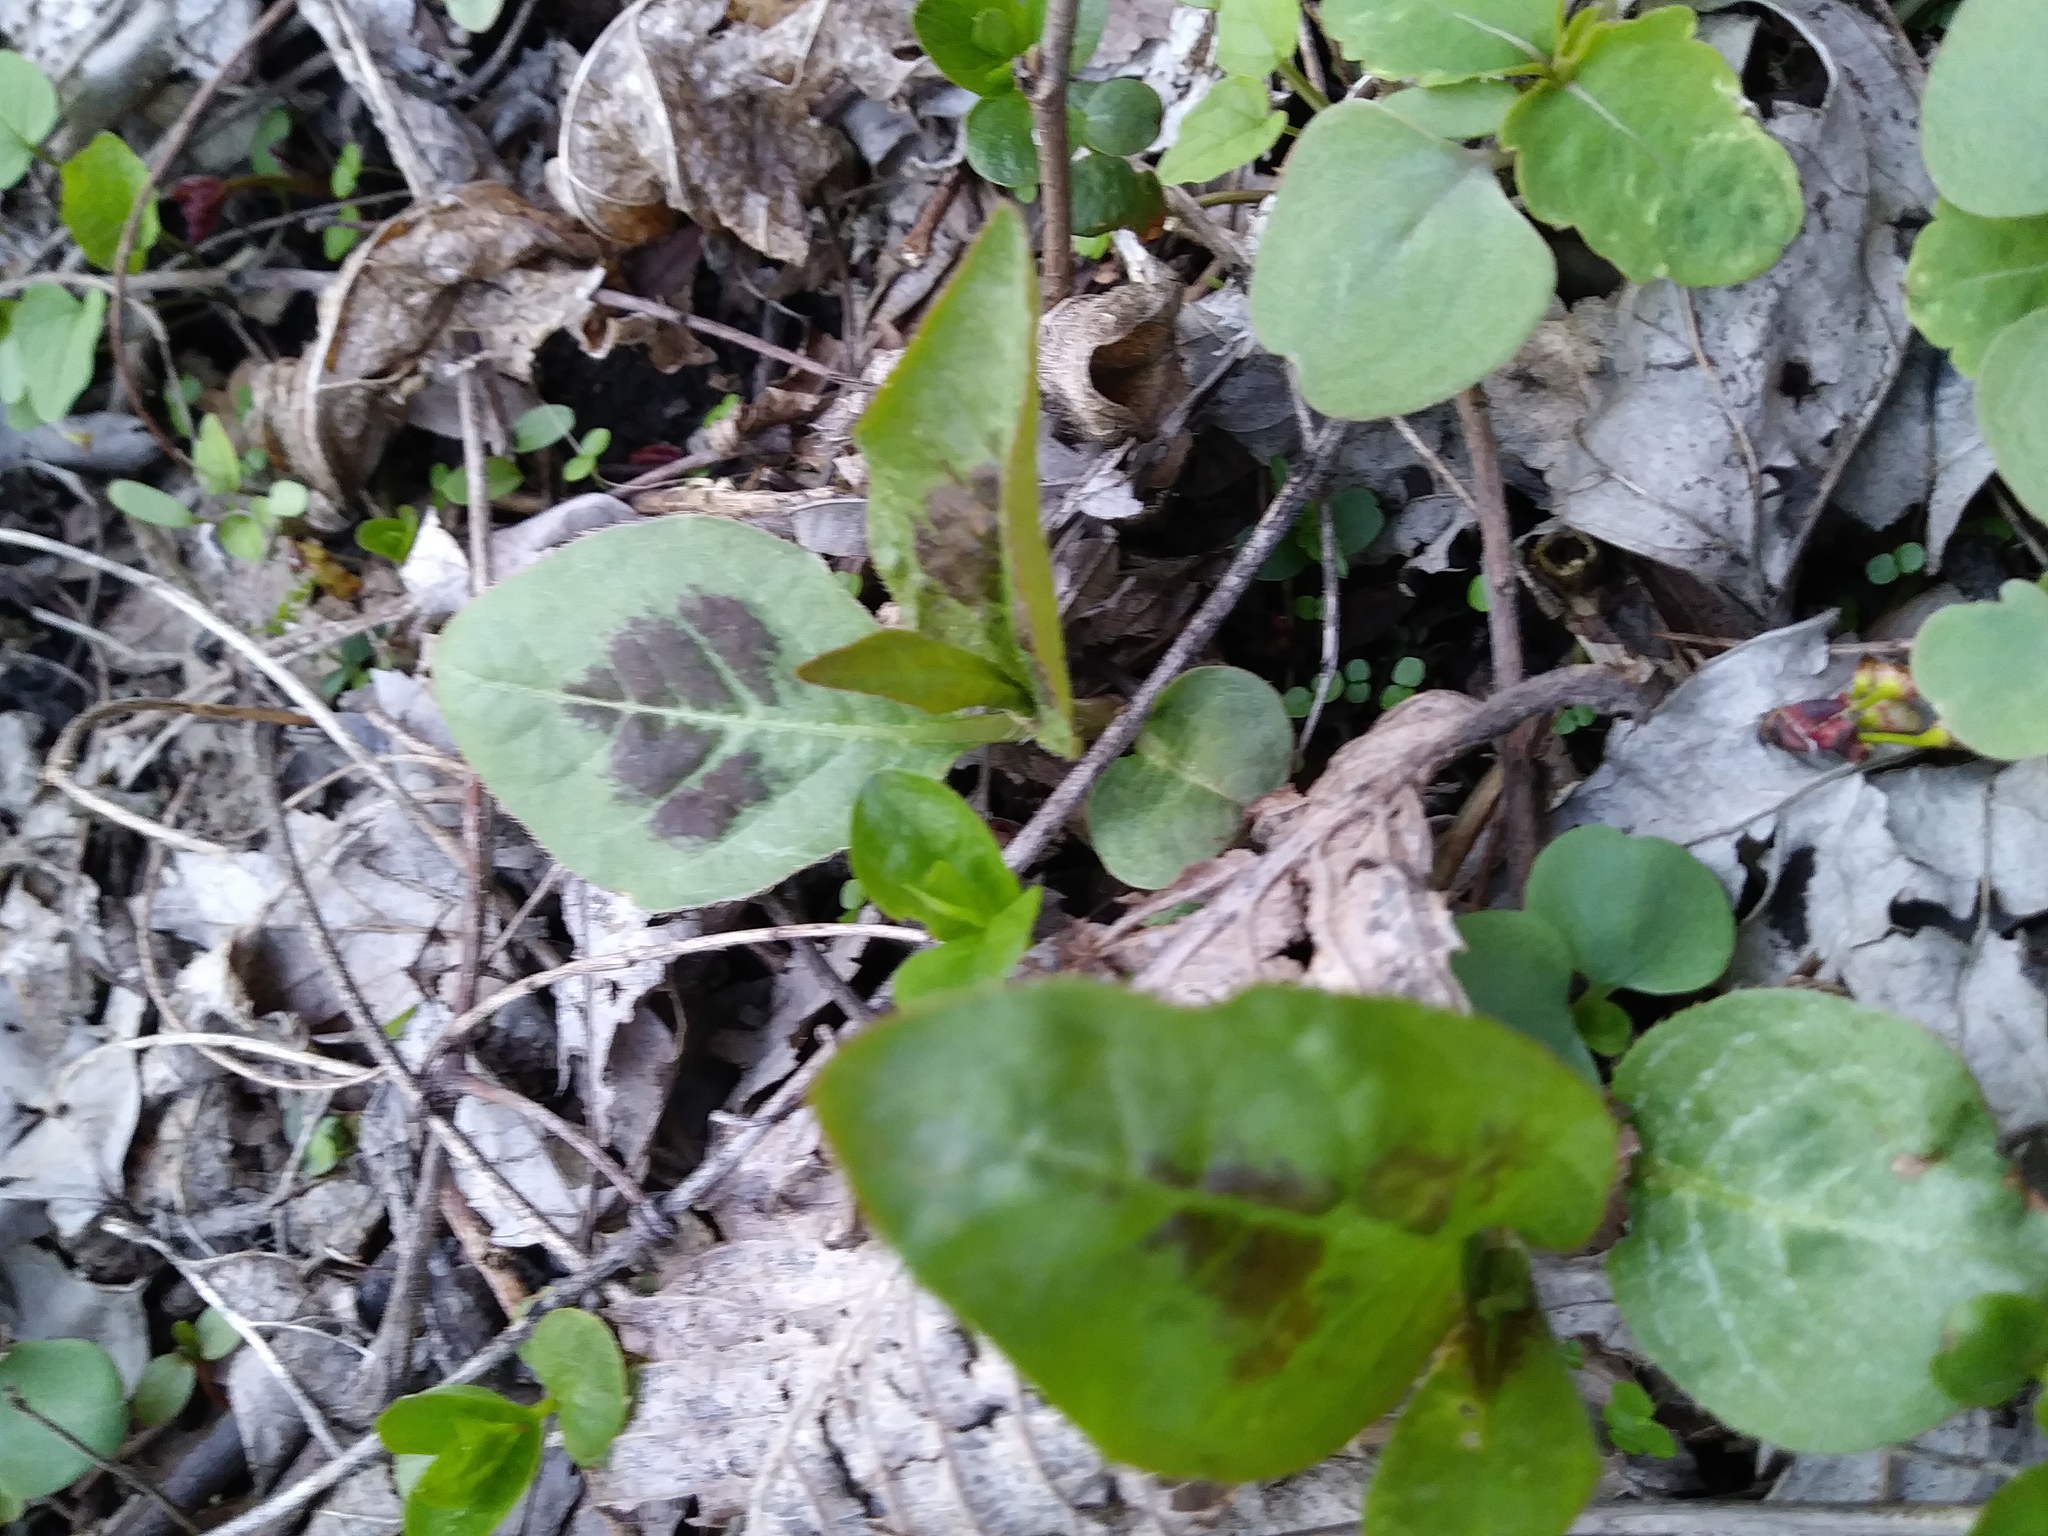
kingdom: Plantae
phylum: Tracheophyta
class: Magnoliopsida
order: Caryophyllales
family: Polygonaceae
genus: Persicaria
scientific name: Persicaria virginiana
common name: Jumpseed
